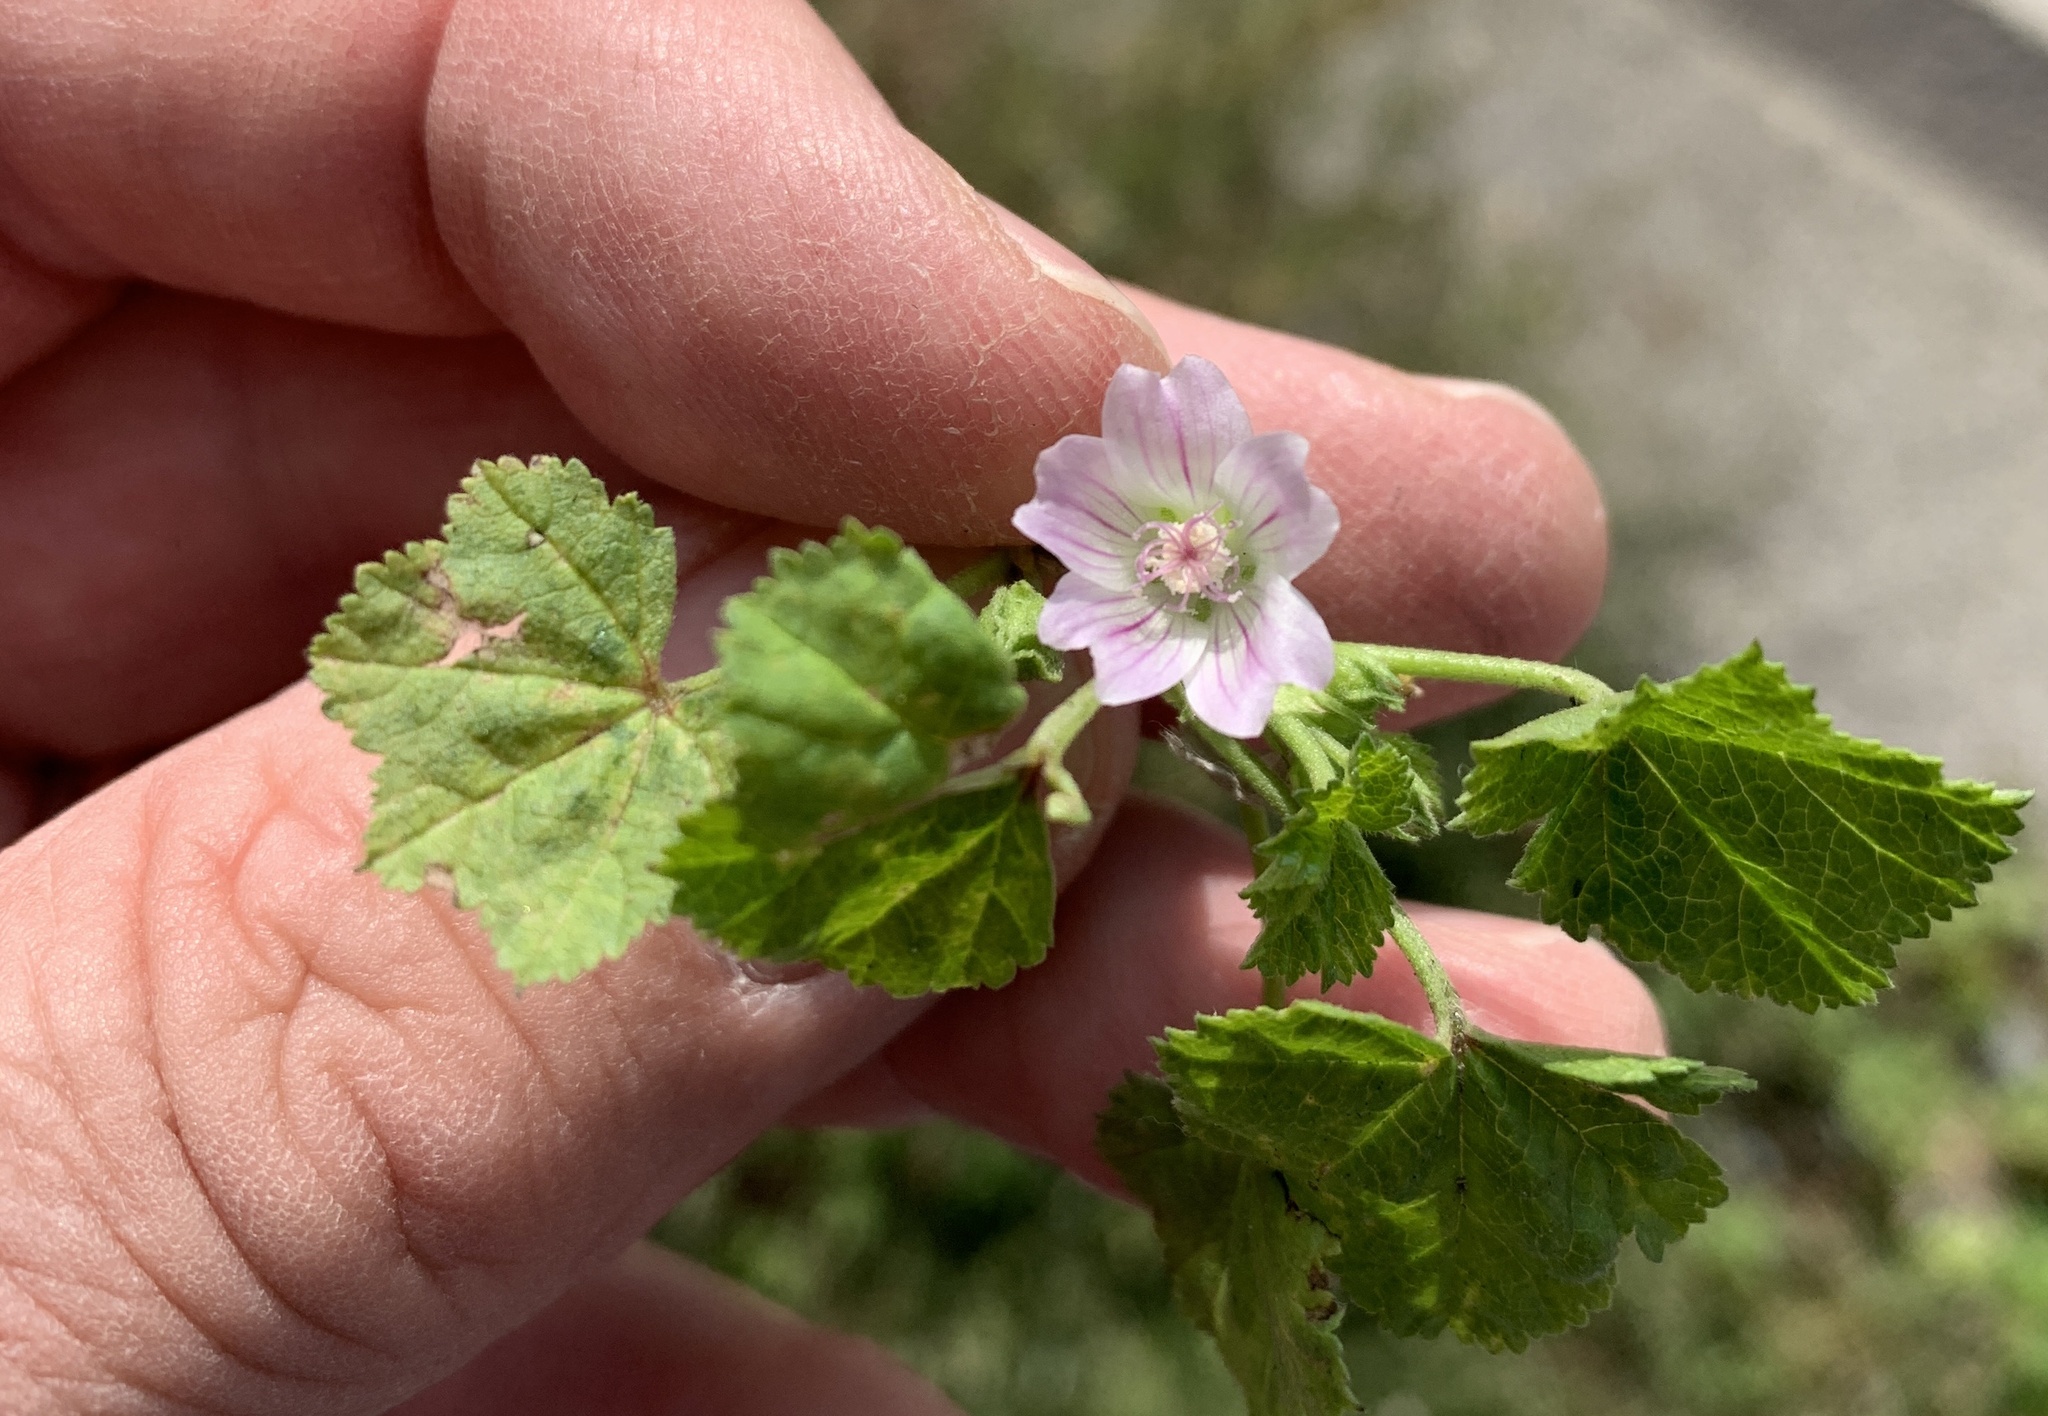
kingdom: Plantae
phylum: Tracheophyta
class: Magnoliopsida
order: Malvales
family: Malvaceae
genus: Malva
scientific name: Malva neglecta
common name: Common mallow
